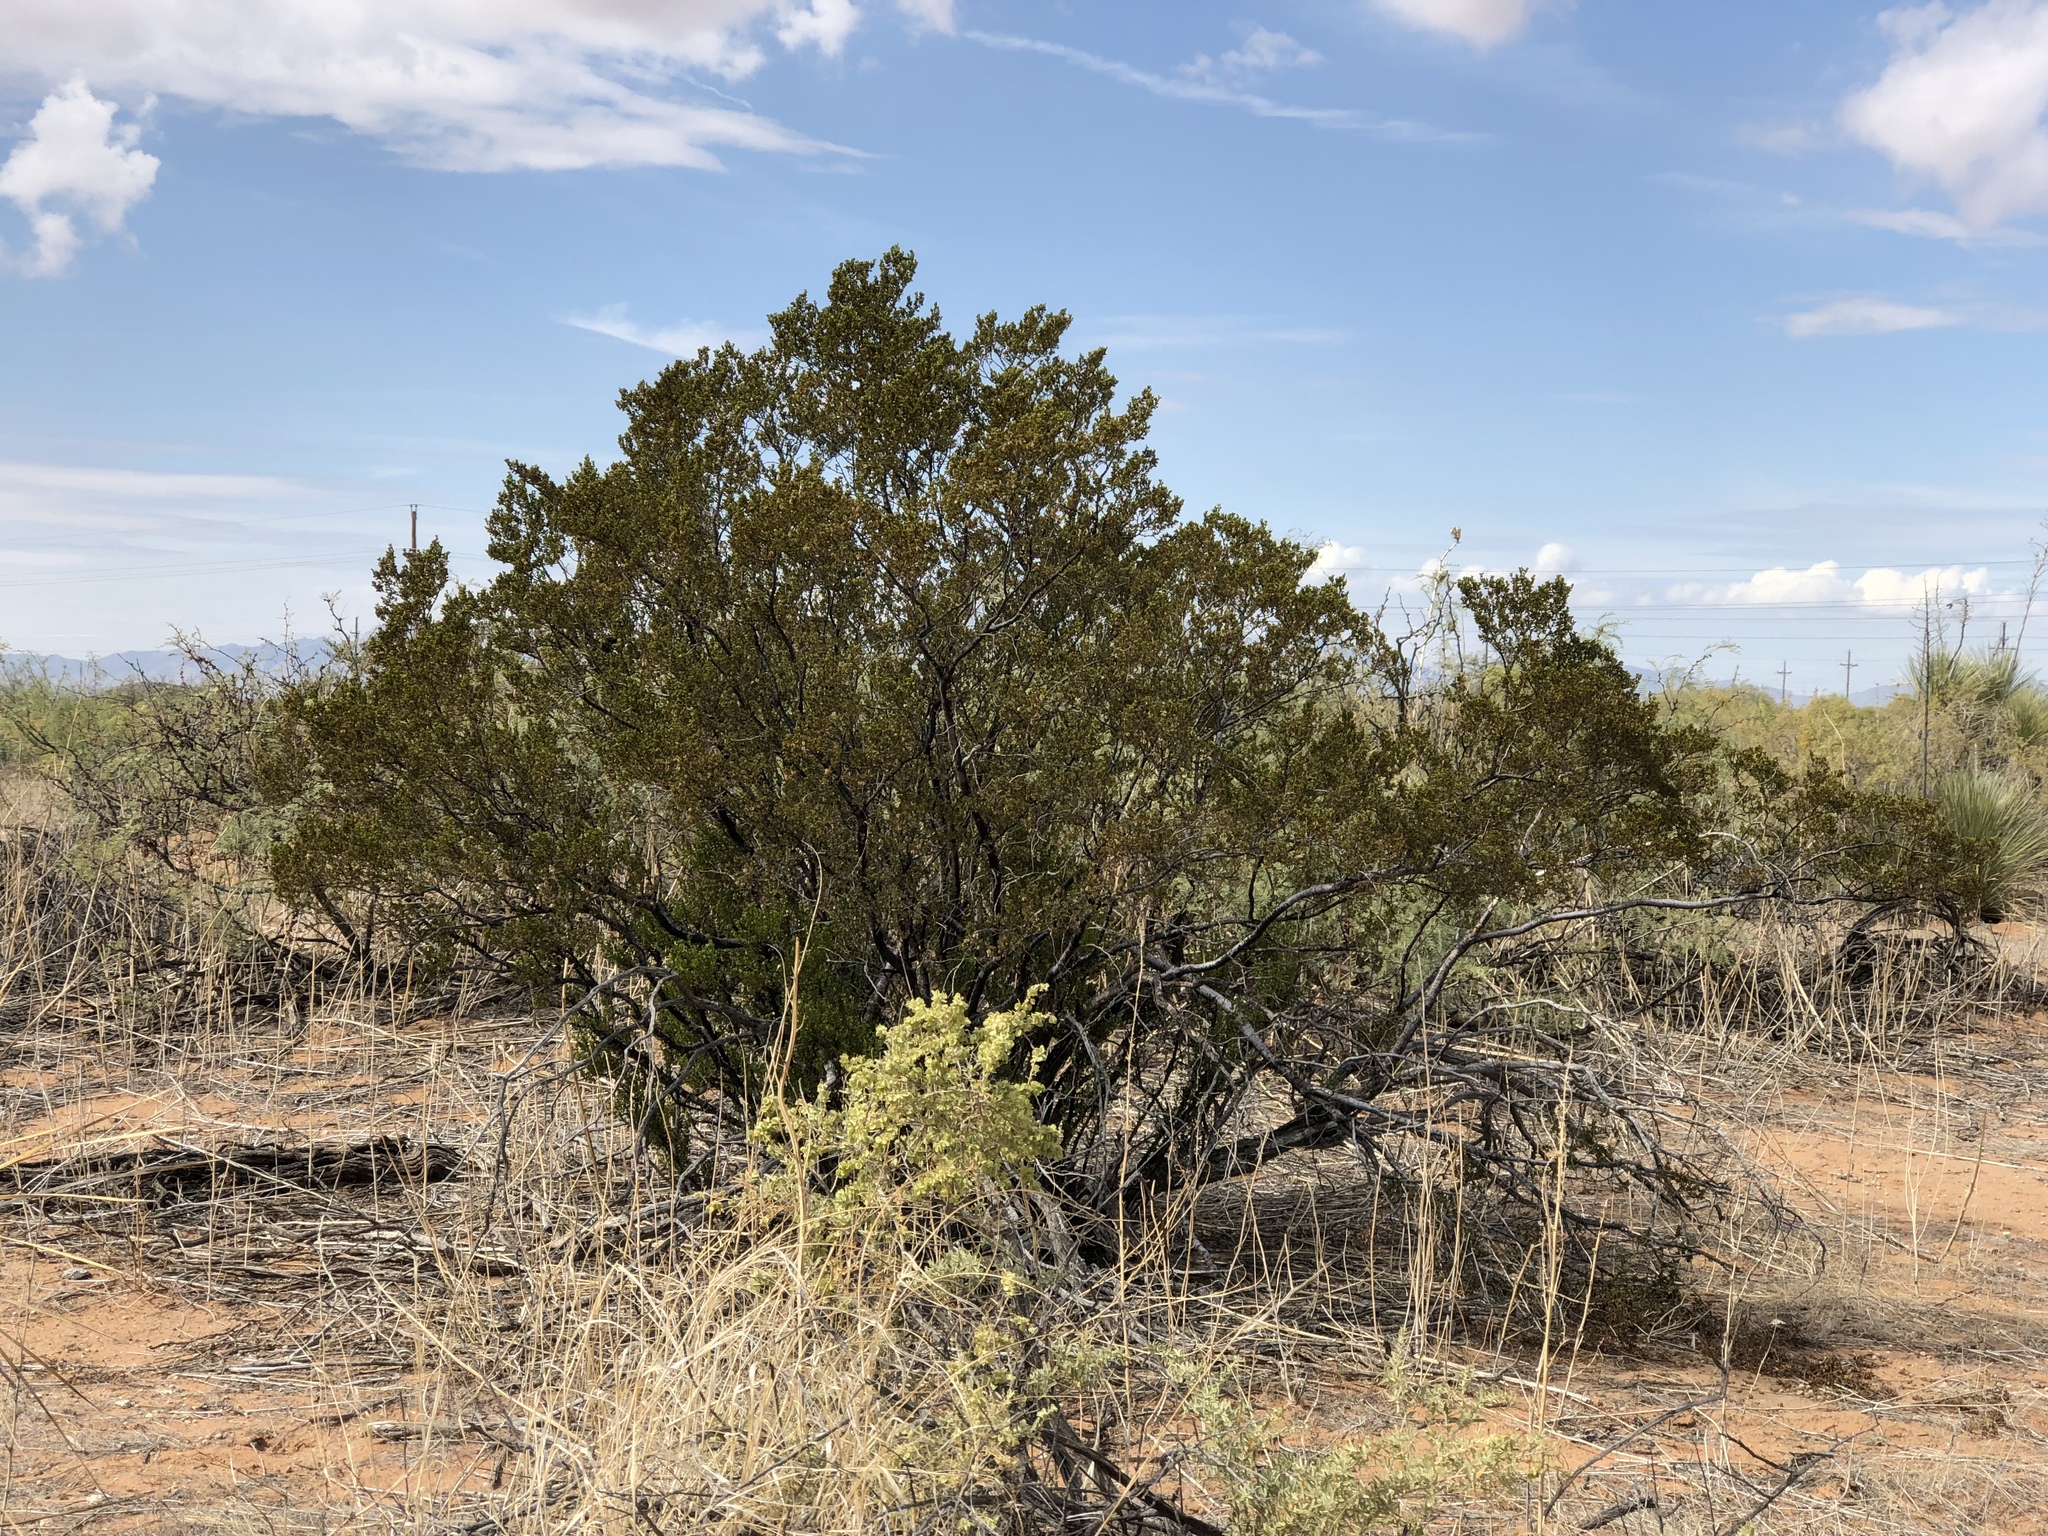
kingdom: Plantae
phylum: Tracheophyta
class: Magnoliopsida
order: Zygophyllales
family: Zygophyllaceae
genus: Larrea
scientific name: Larrea tridentata
